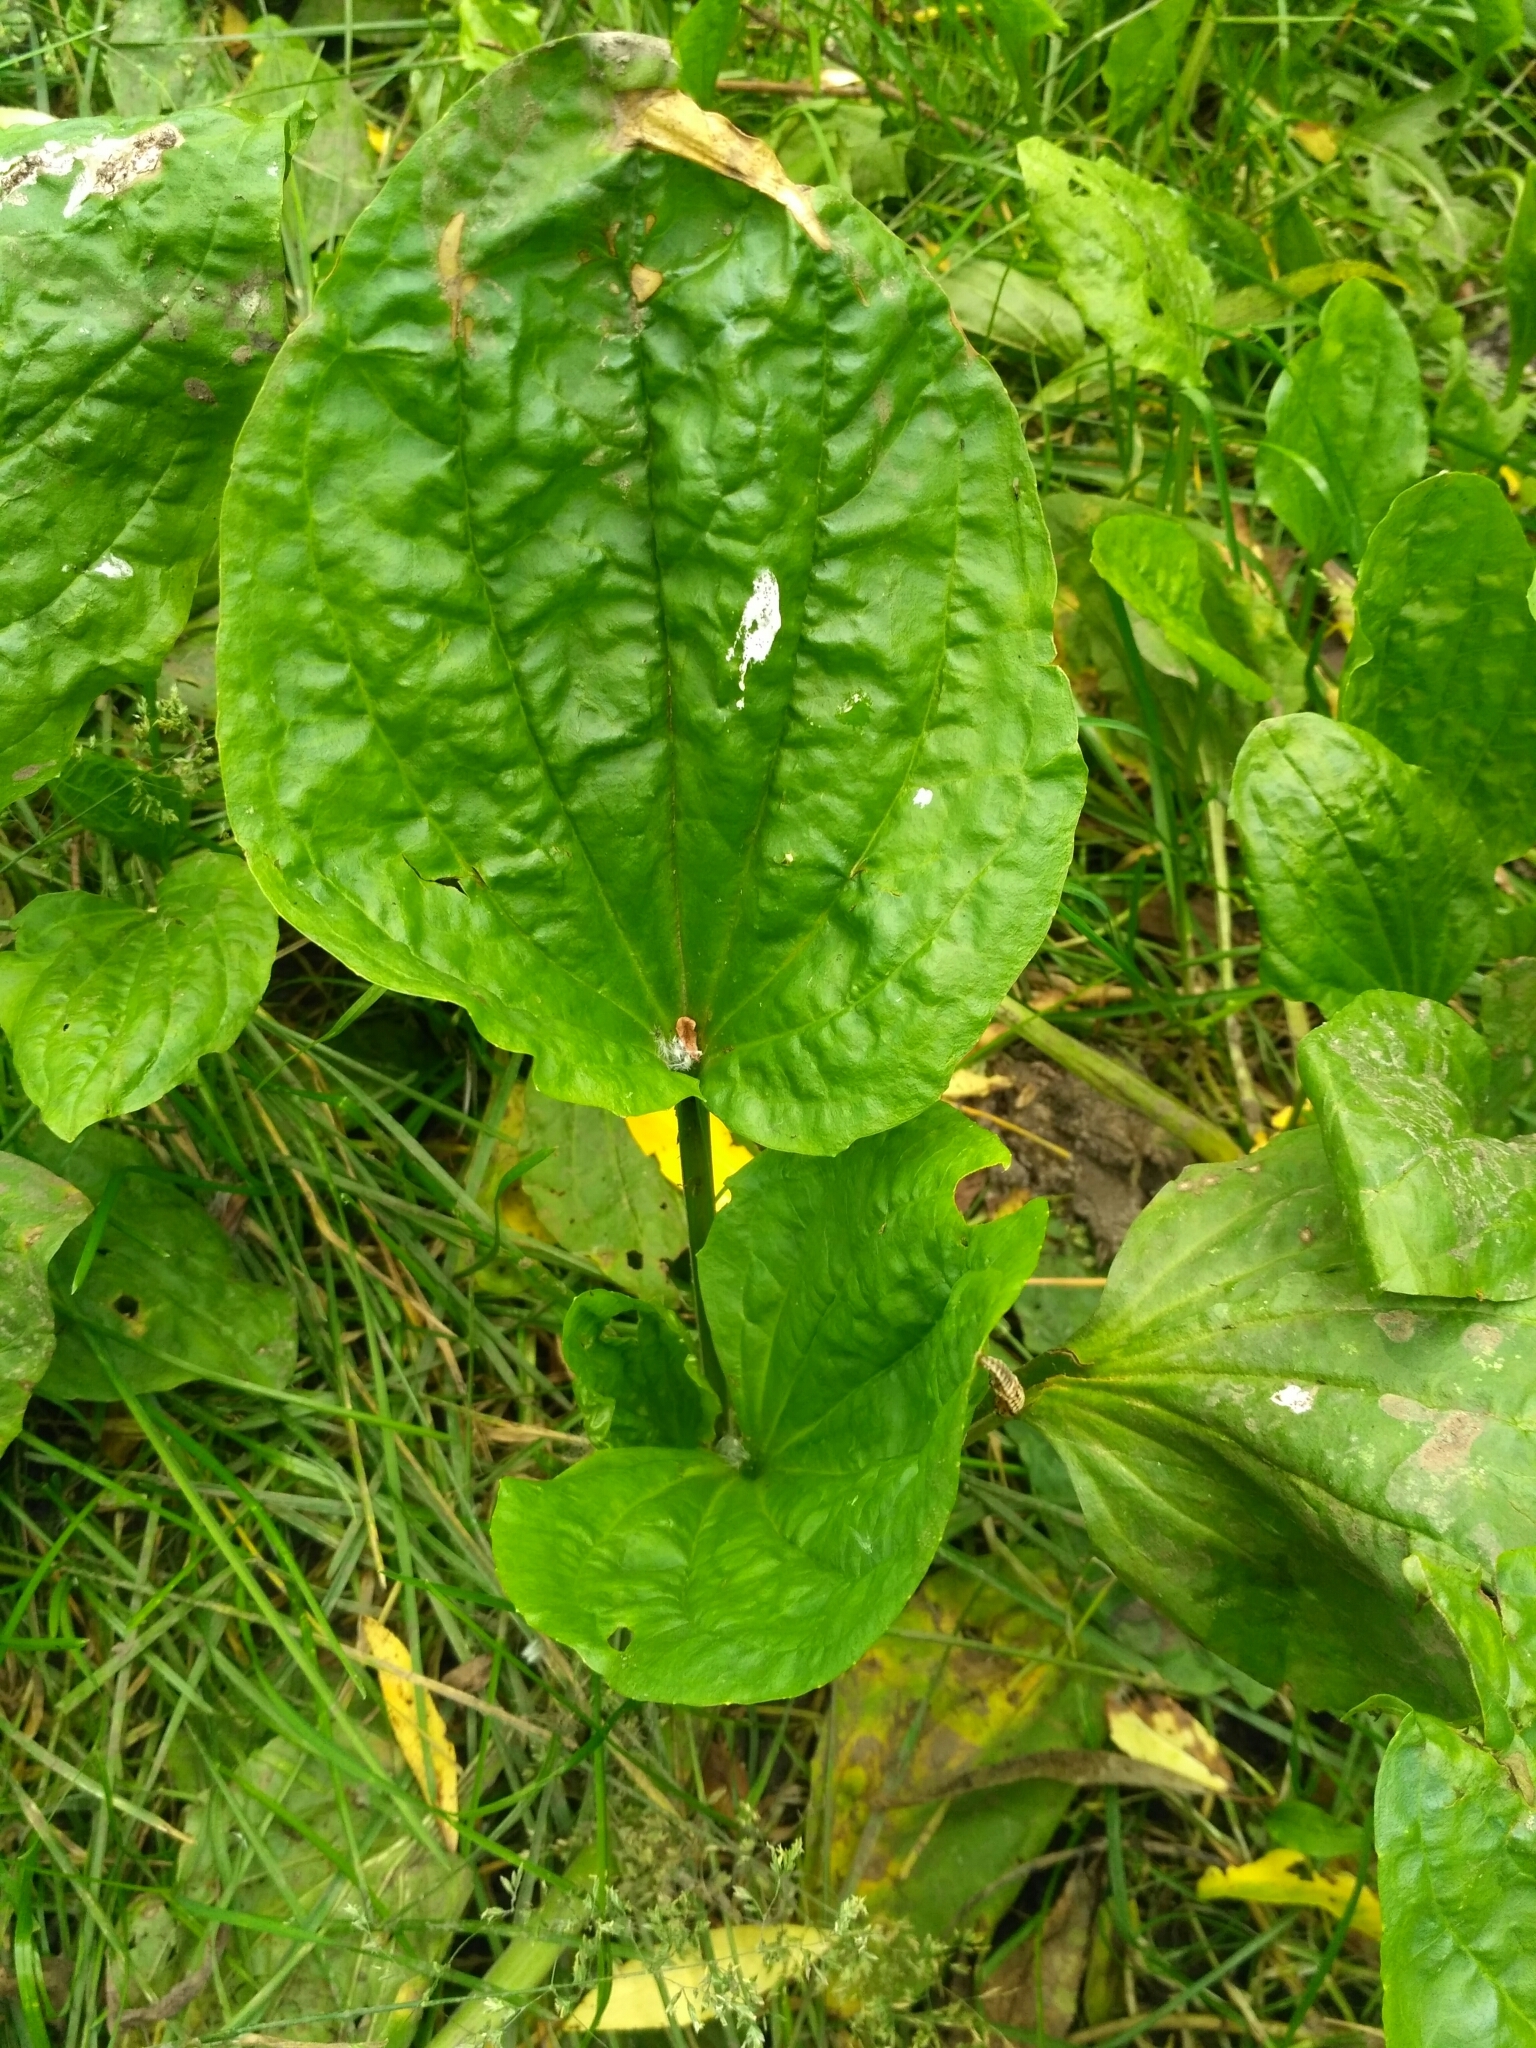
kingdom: Plantae
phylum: Tracheophyta
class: Magnoliopsida
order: Lamiales
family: Plantaginaceae
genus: Plantago
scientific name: Plantago major
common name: Common plantain
